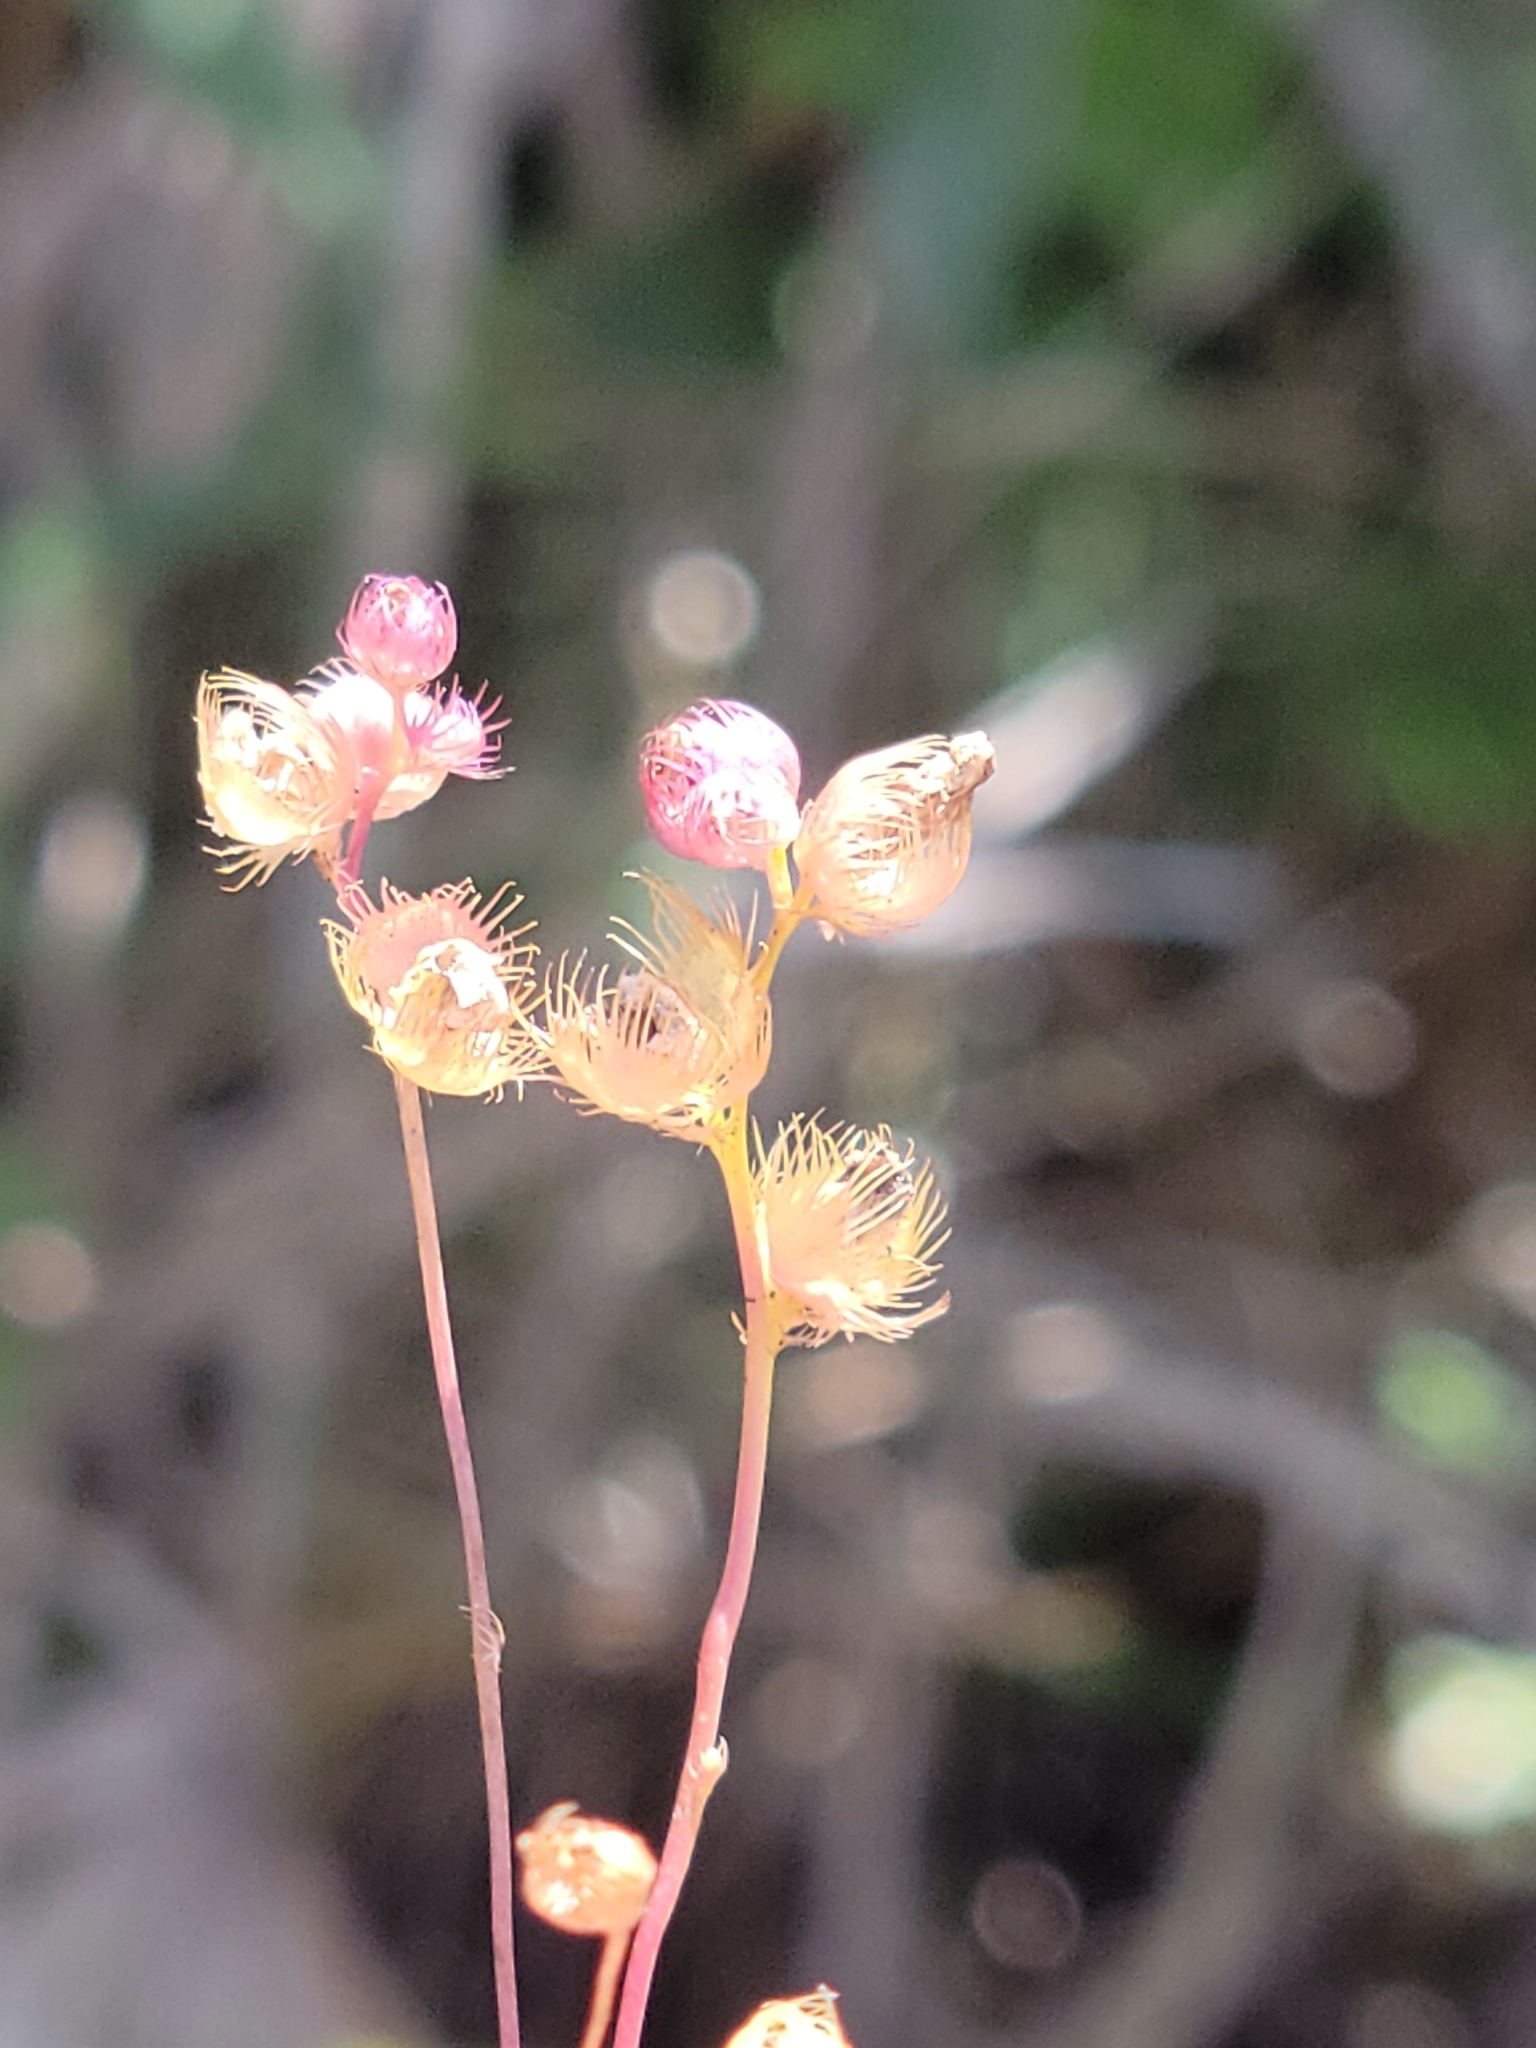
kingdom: Plantae
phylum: Tracheophyta
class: Magnoliopsida
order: Lamiales
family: Lentibulariaceae
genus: Utricularia
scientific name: Utricularia simulans
